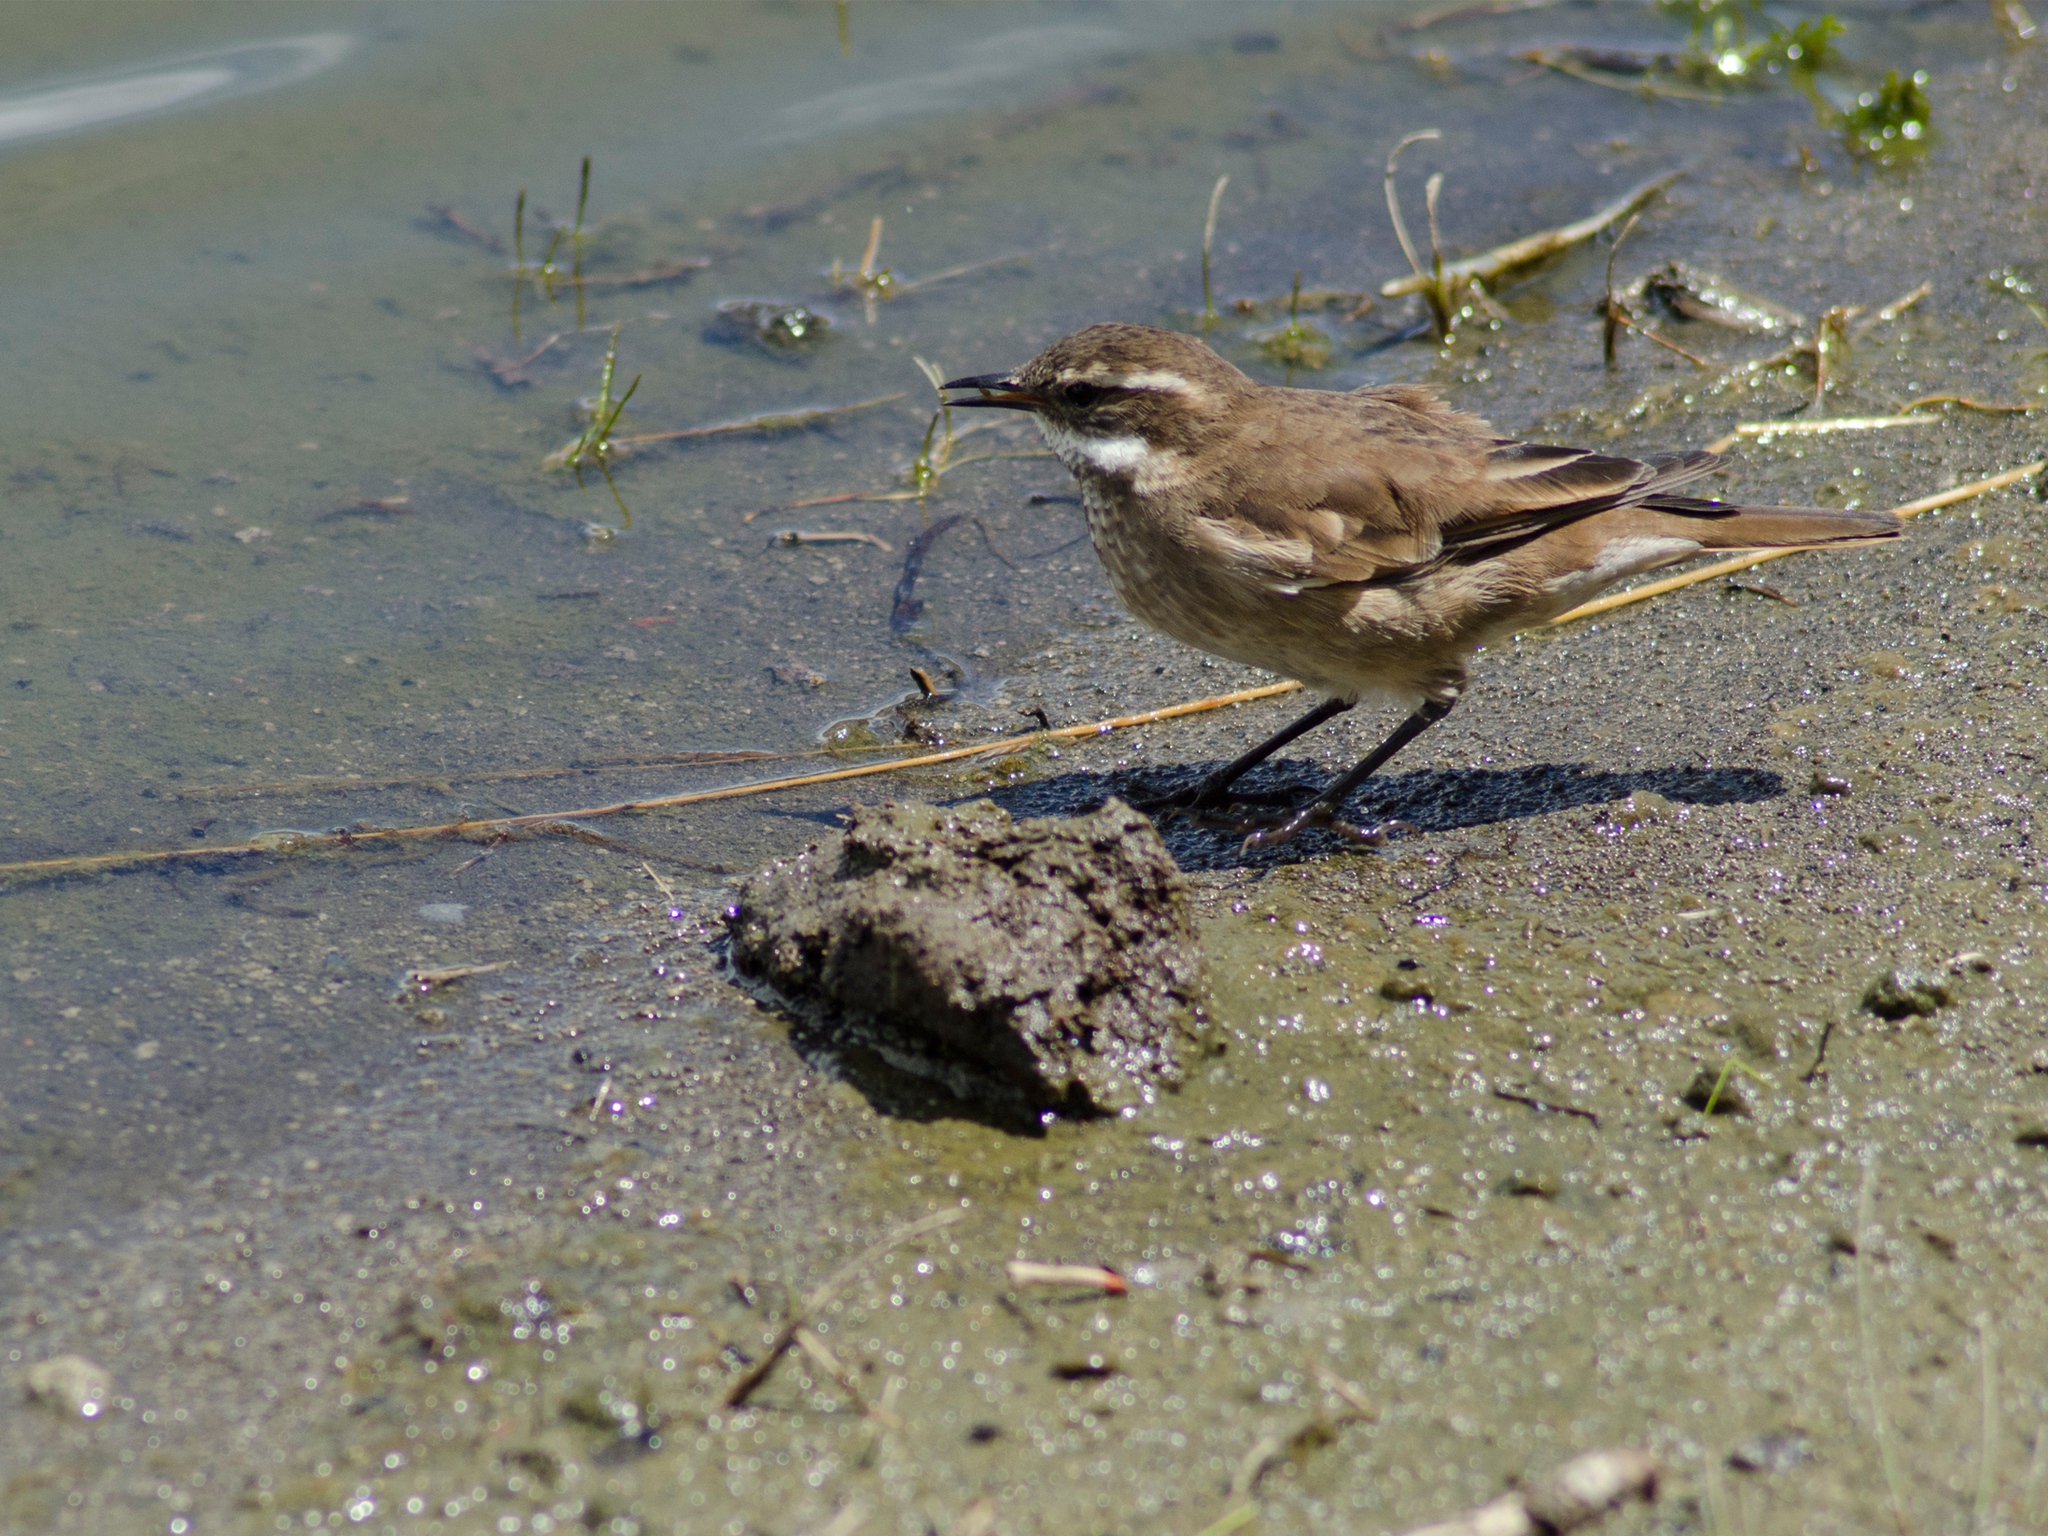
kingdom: Animalia
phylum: Chordata
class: Aves
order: Passeriformes
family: Furnariidae
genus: Cinclodes
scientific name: Cinclodes albidiventris
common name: Chestnut-winged cinclodes
